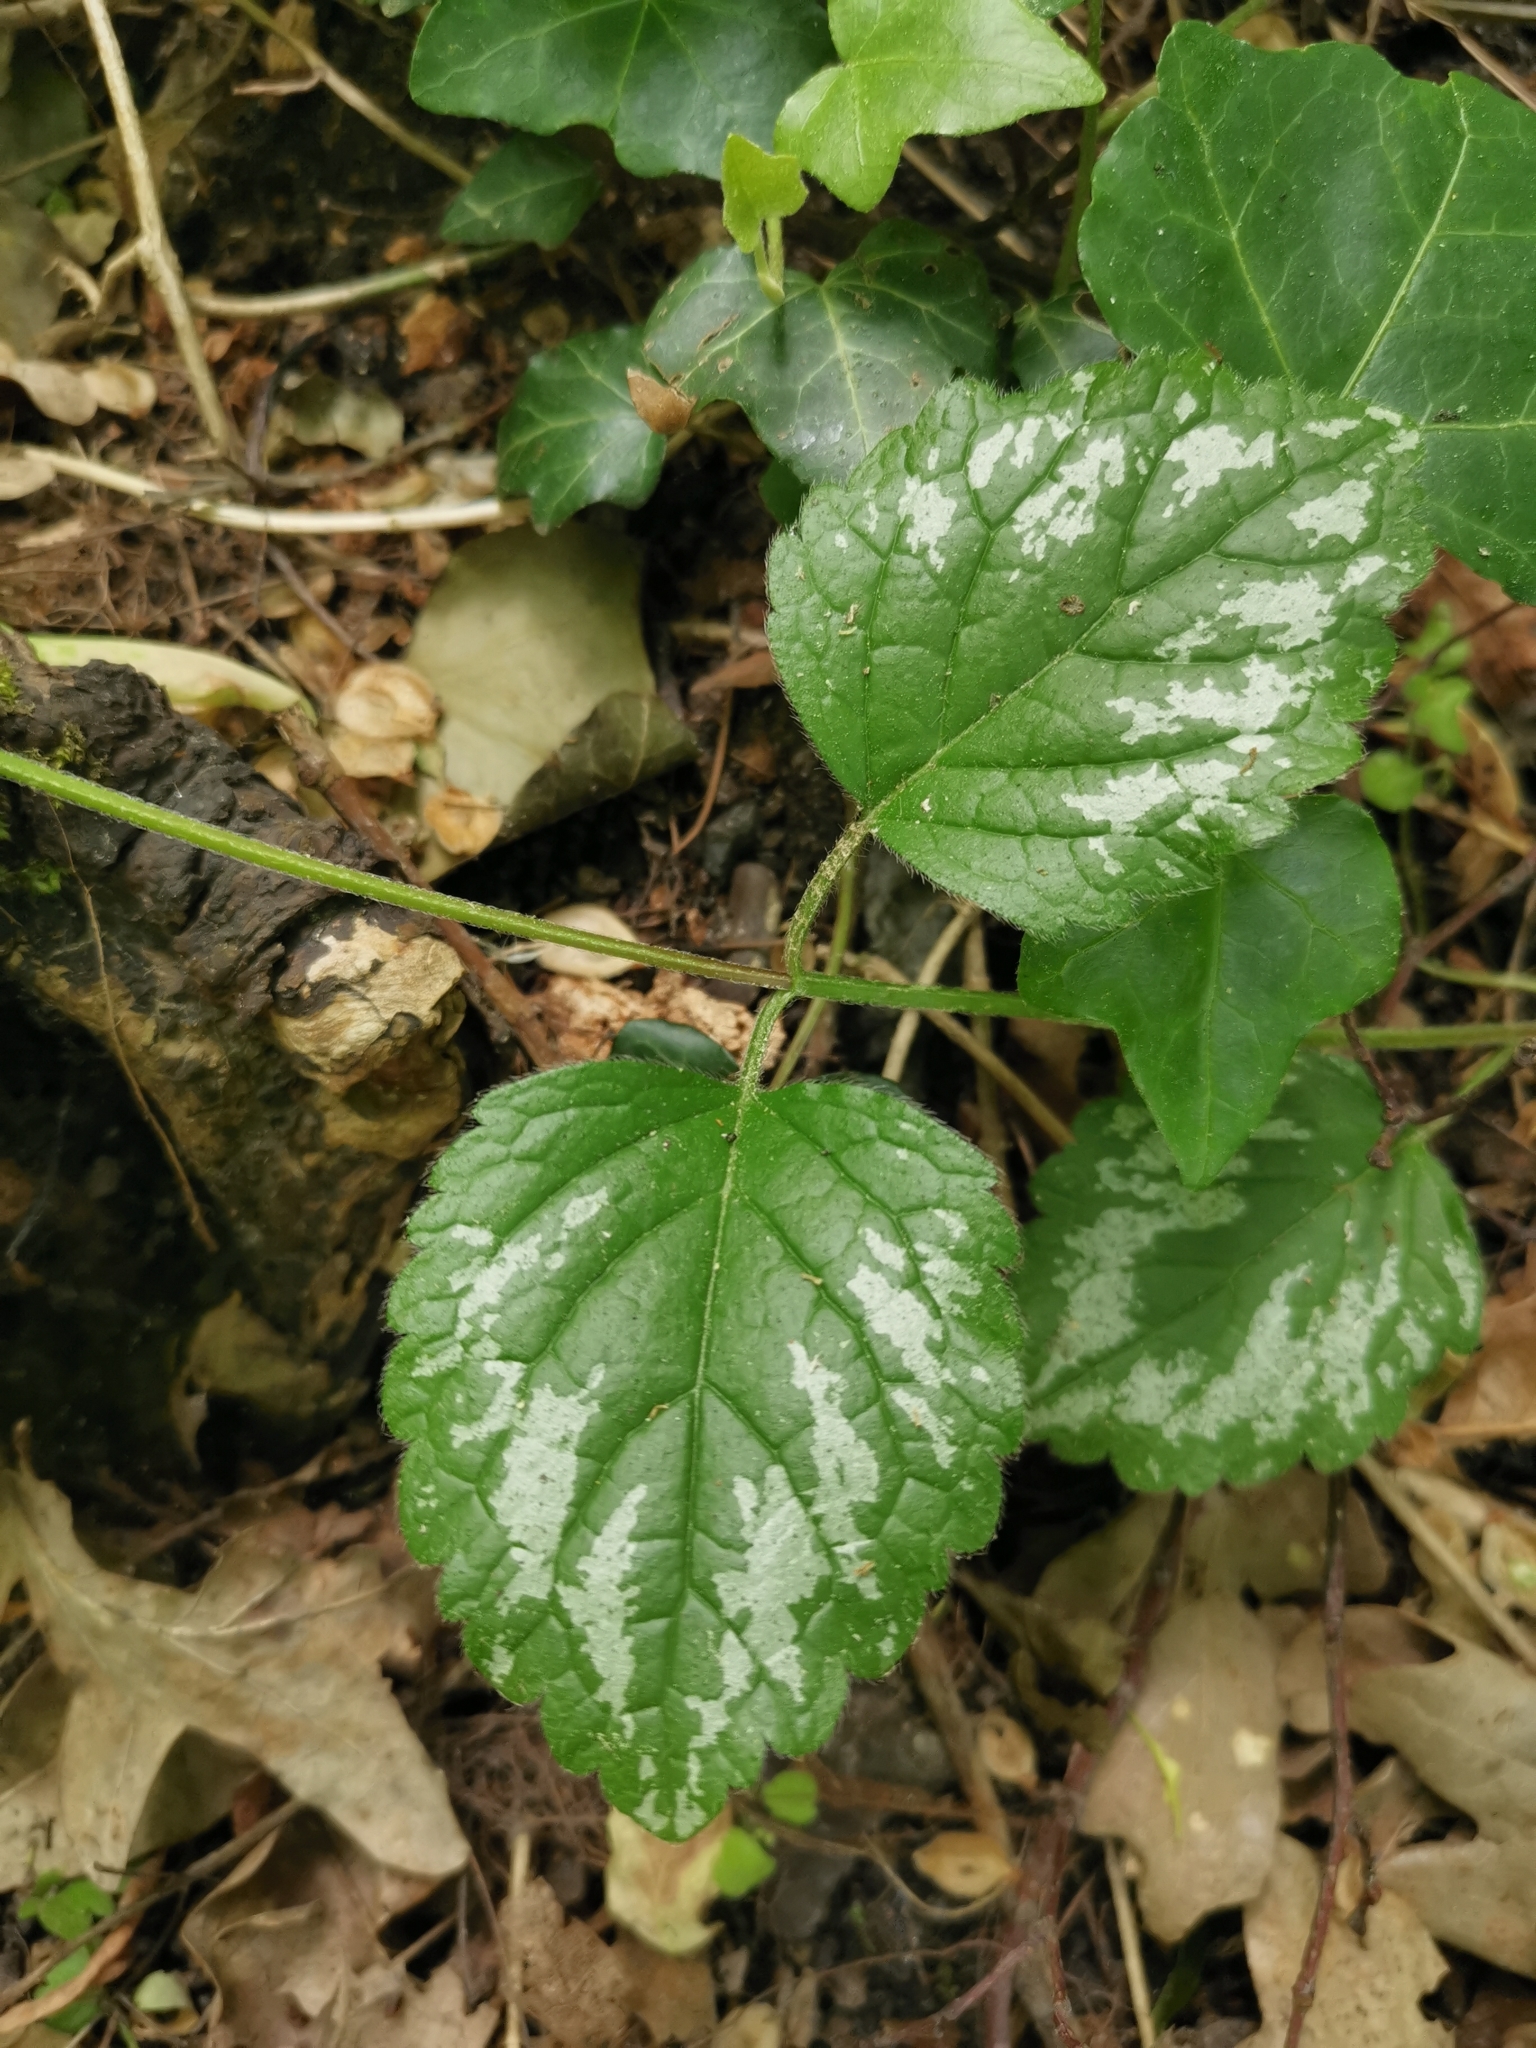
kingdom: Plantae
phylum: Tracheophyta
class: Magnoliopsida
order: Lamiales
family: Lamiaceae
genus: Lamium
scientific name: Lamium galeobdolon
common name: Yellow archangel
